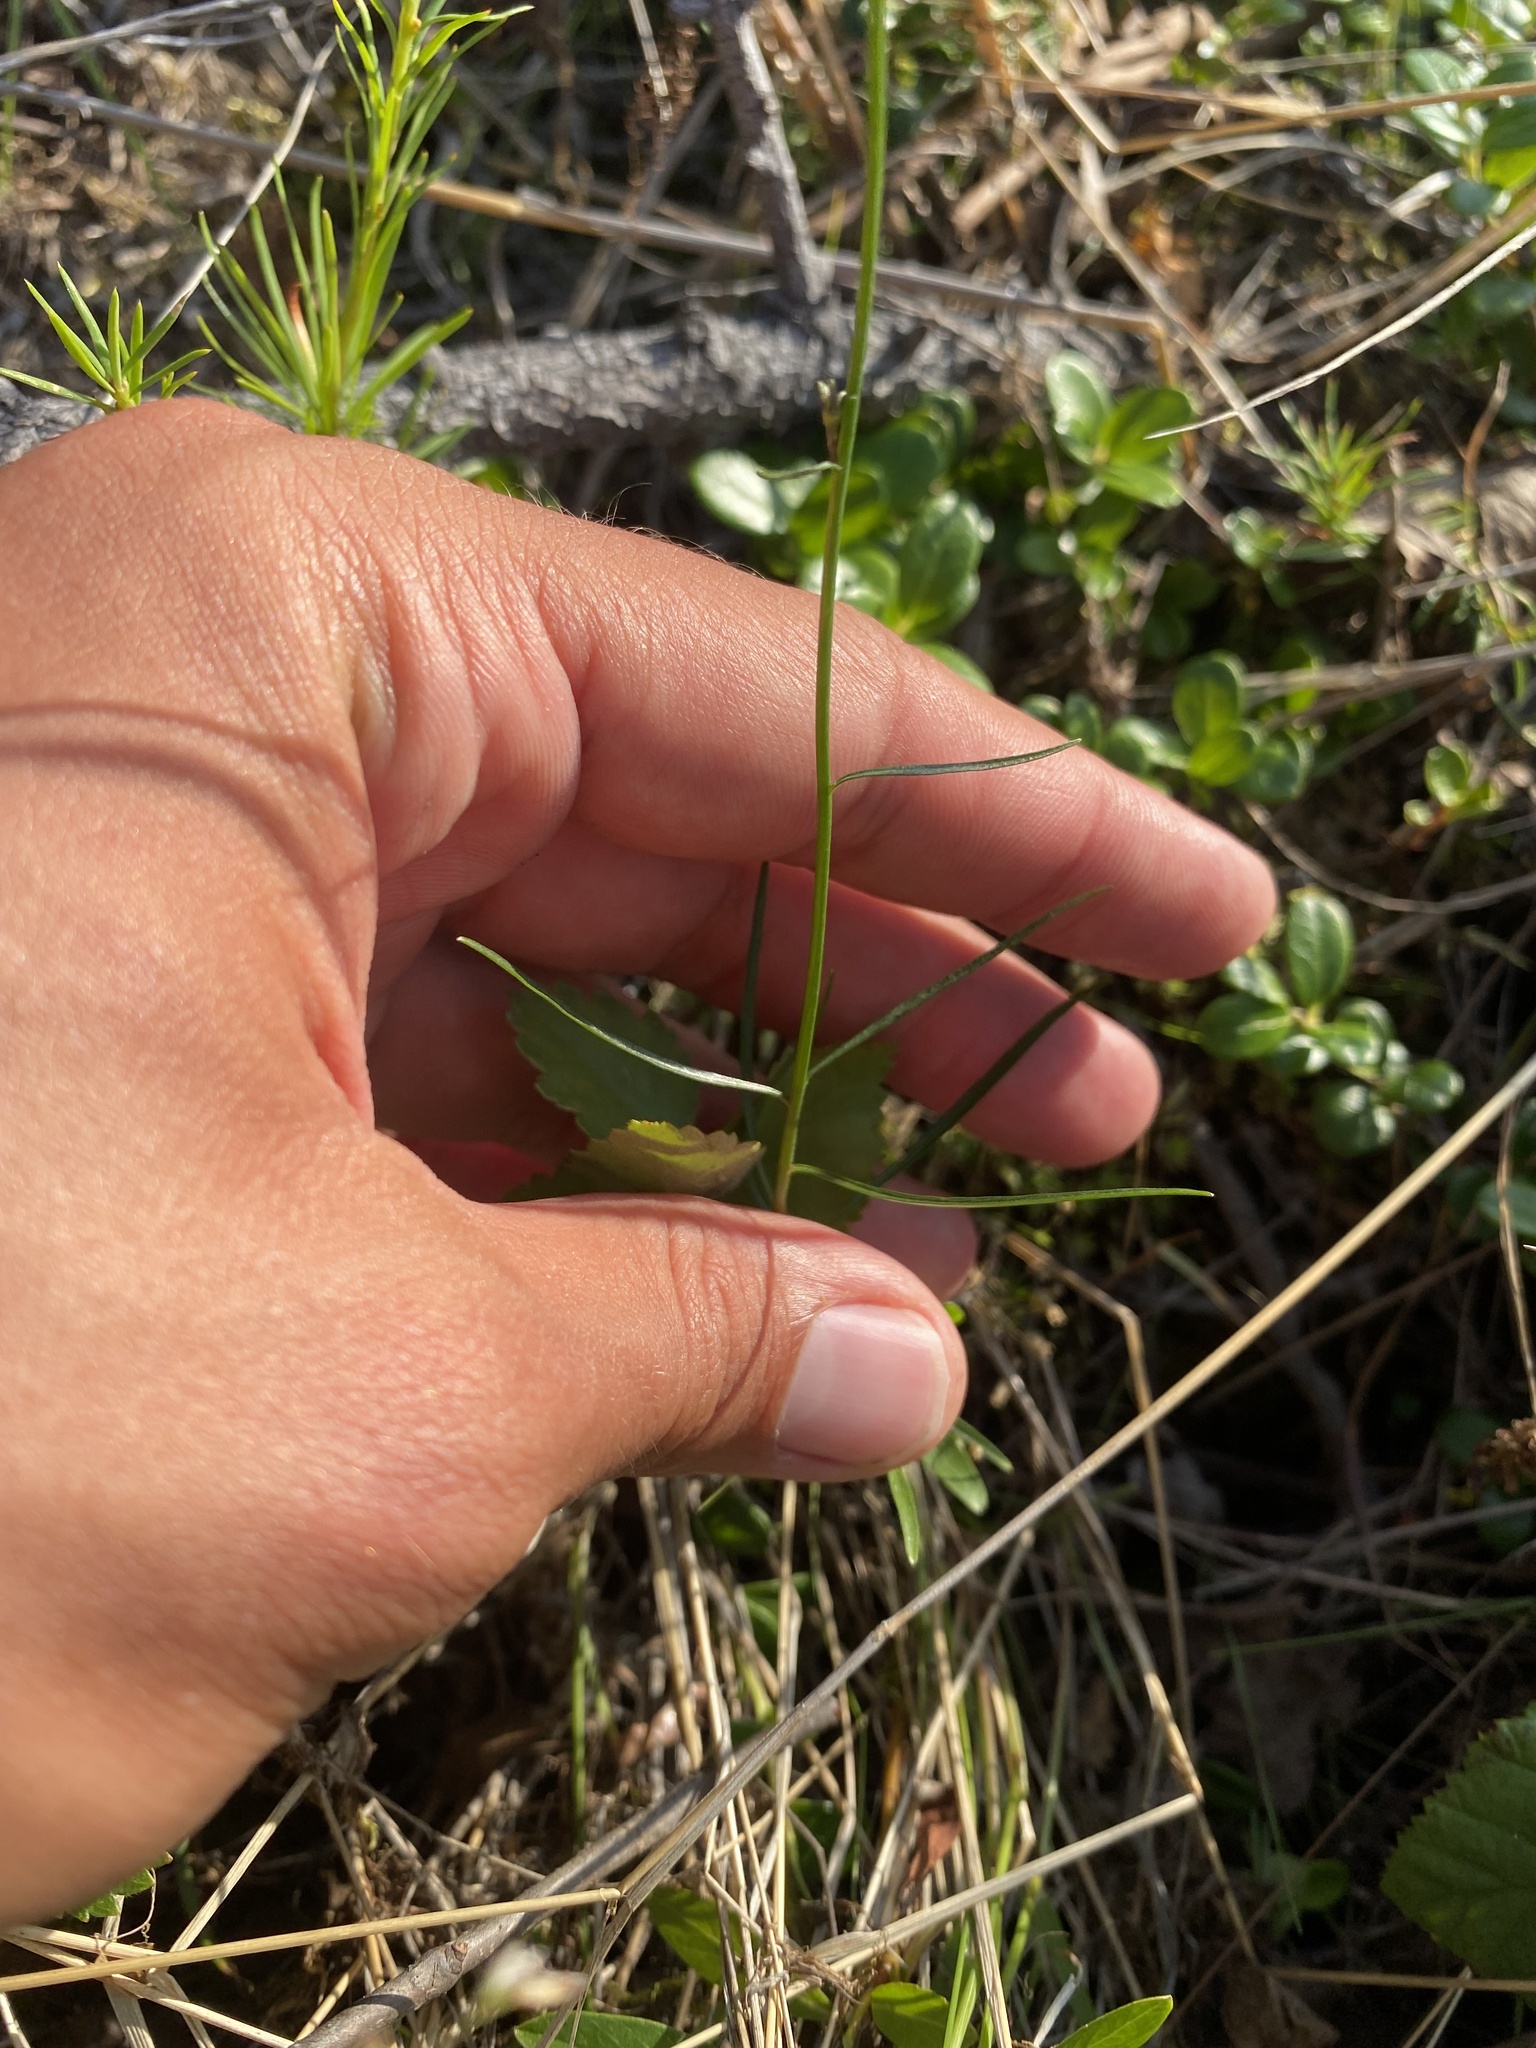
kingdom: Plantae
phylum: Tracheophyta
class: Magnoliopsida
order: Asterales
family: Campanulaceae
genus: Campanula
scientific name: Campanula rotundifolia
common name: Harebell
